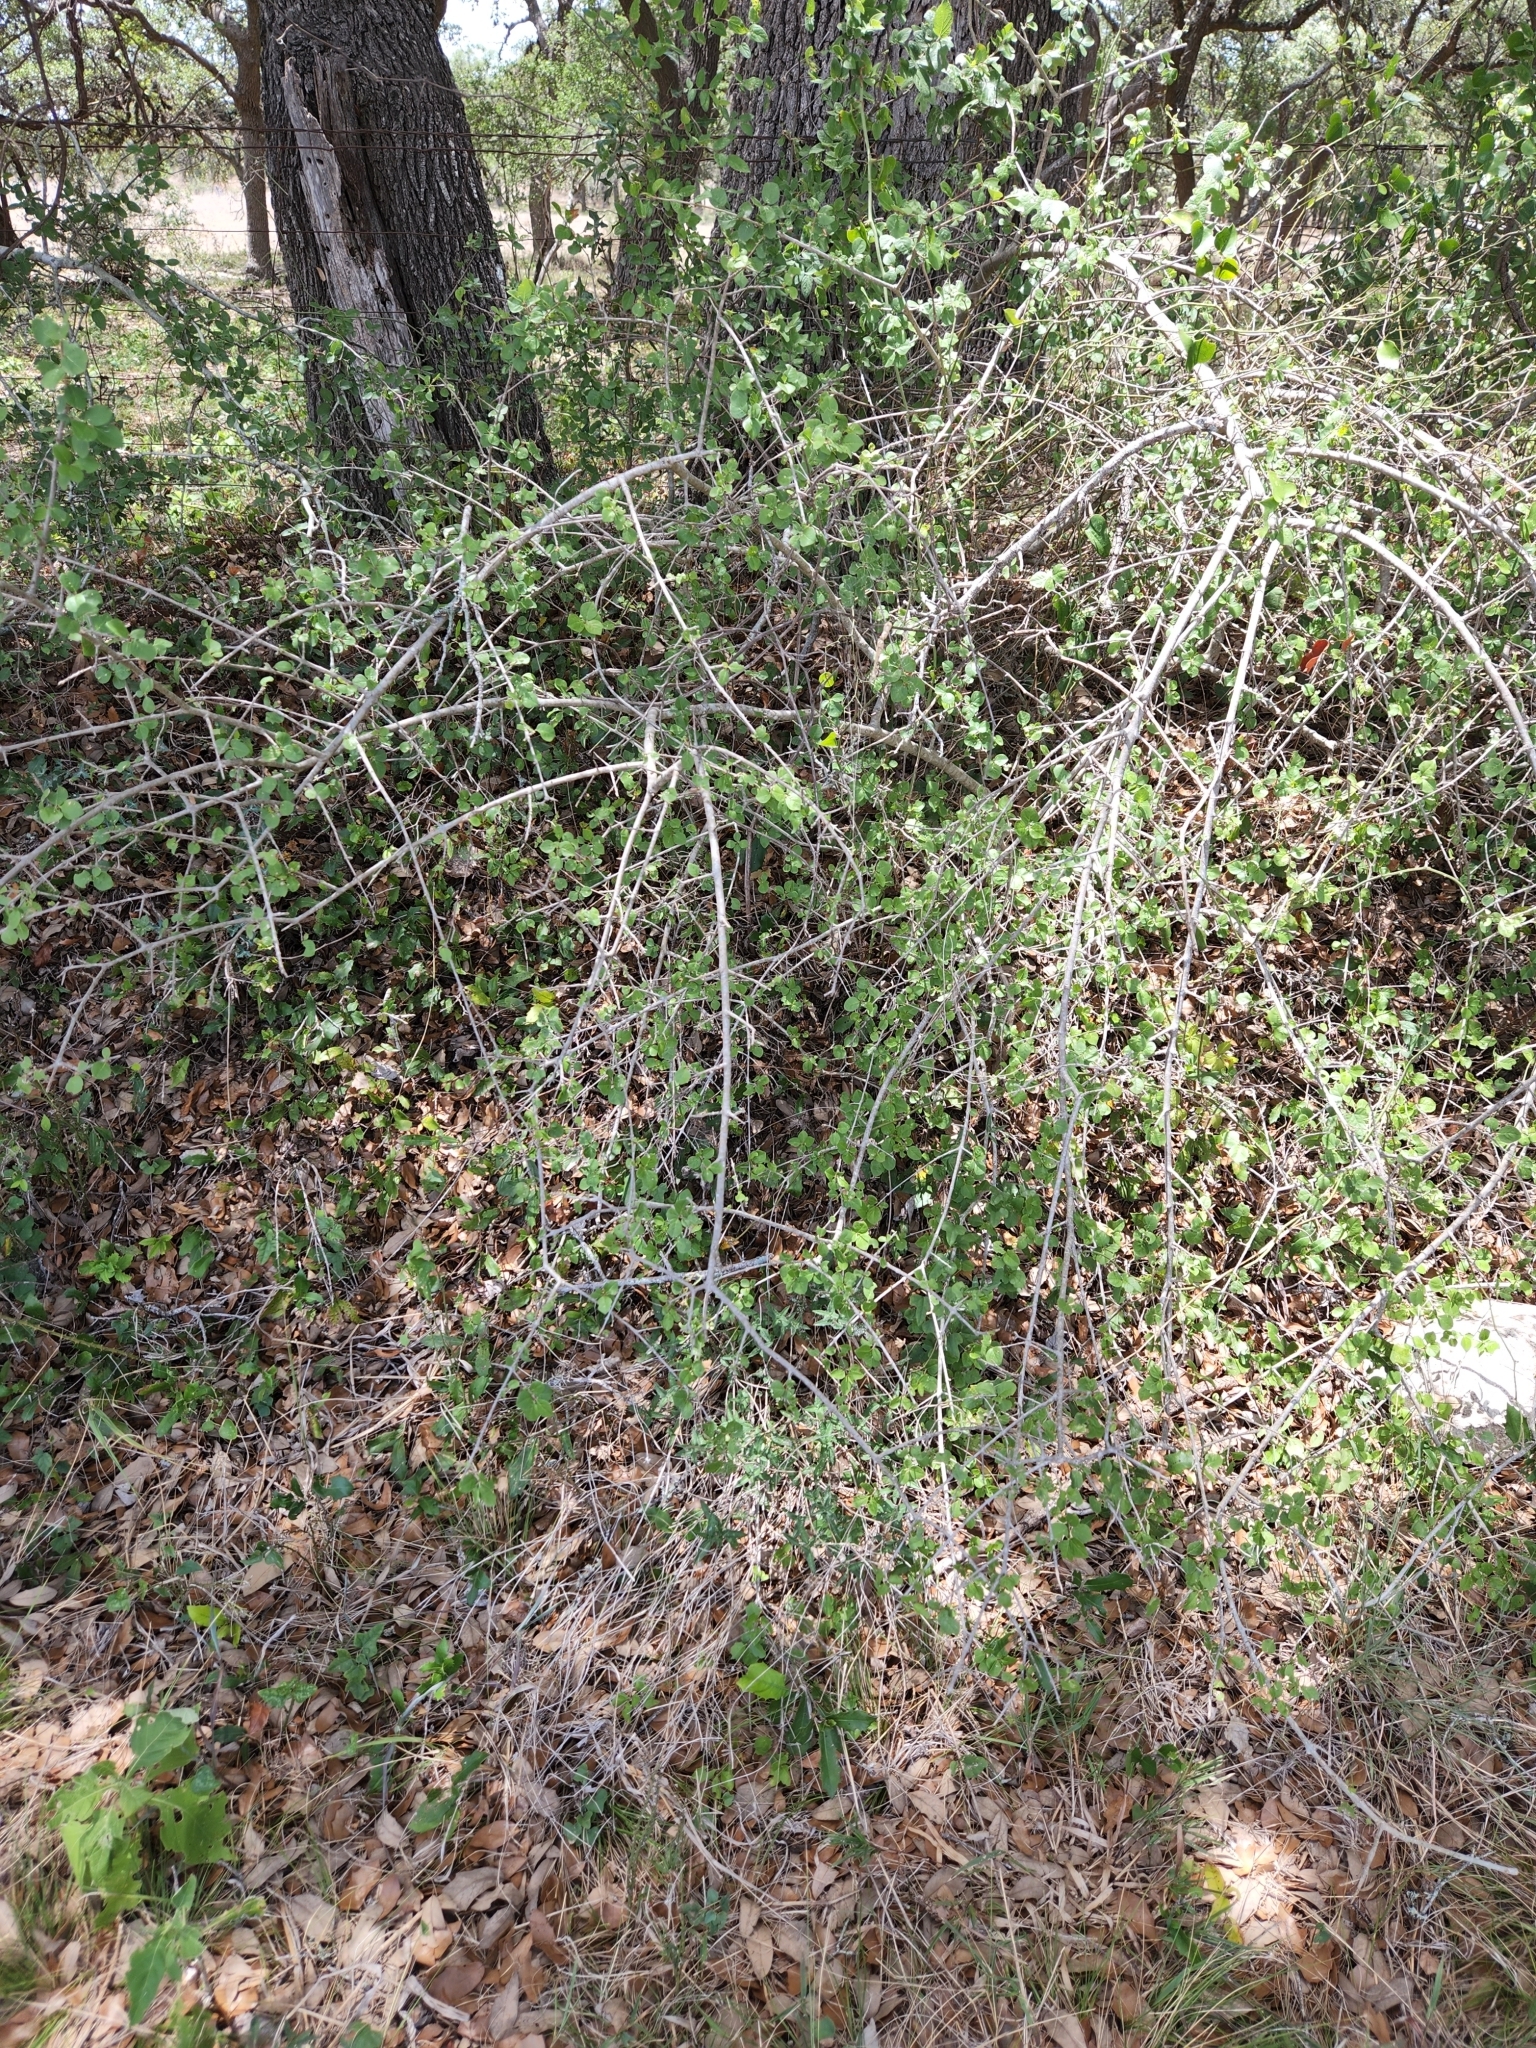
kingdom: Plantae
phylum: Tracheophyta
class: Magnoliopsida
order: Lamiales
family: Oleaceae
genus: Forestiera
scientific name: Forestiera pubescens
